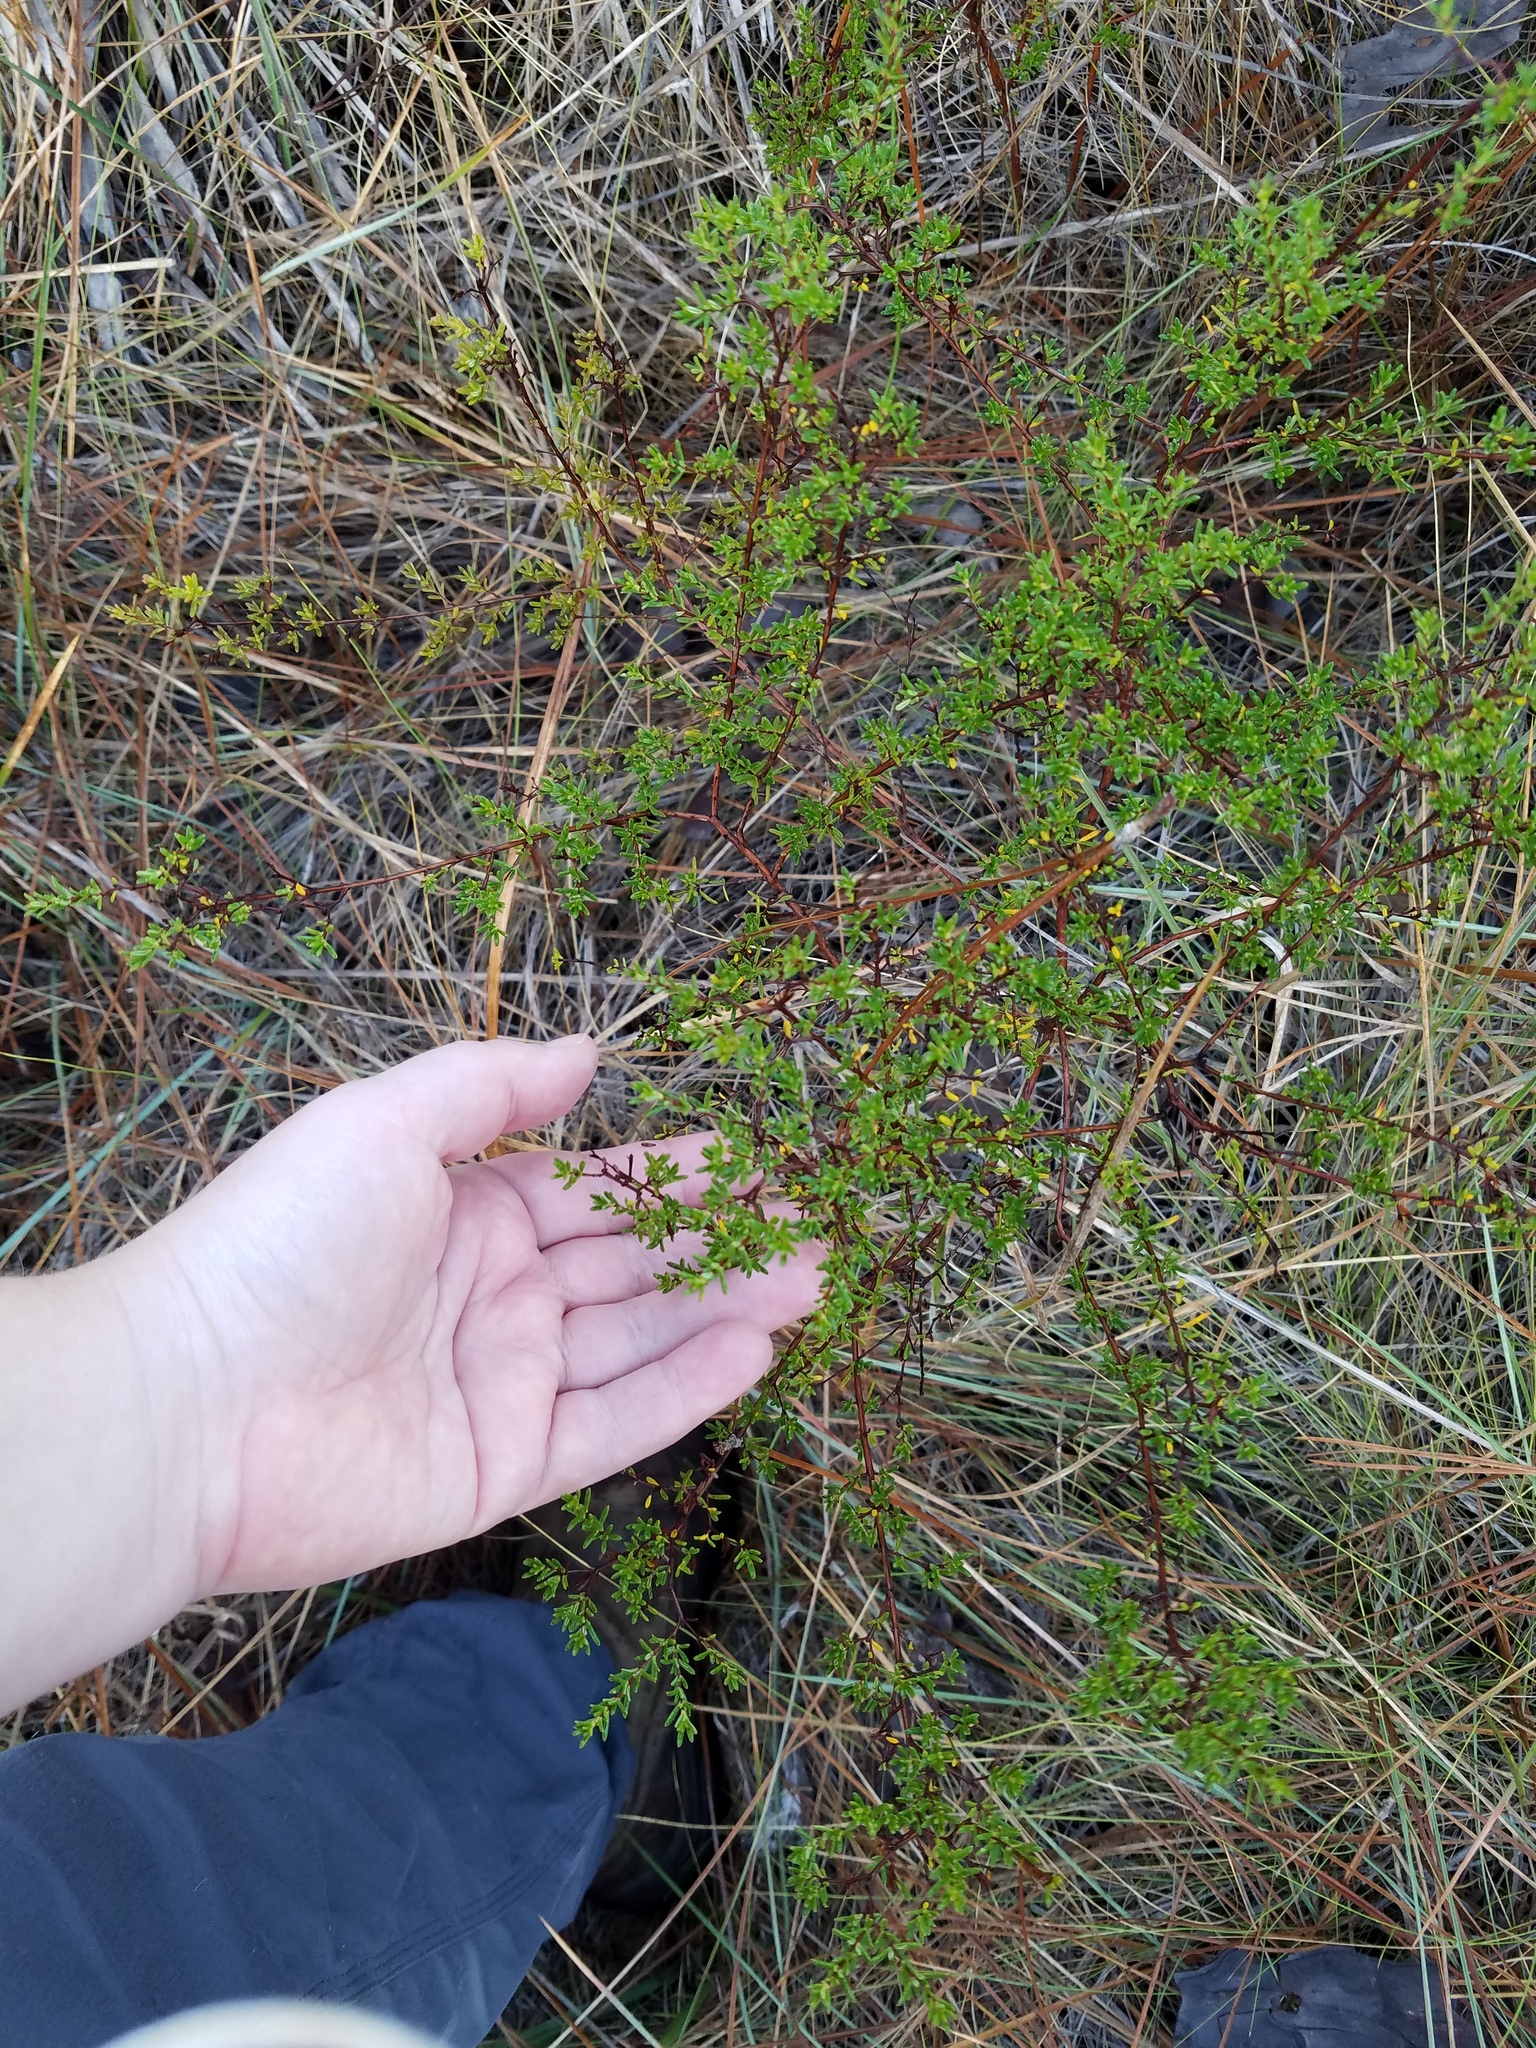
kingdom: Plantae
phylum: Tracheophyta
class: Magnoliopsida
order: Malpighiales
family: Hypericaceae
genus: Hypericum
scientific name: Hypericum brachyphyllum
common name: Coastal plain st. john's-wort
